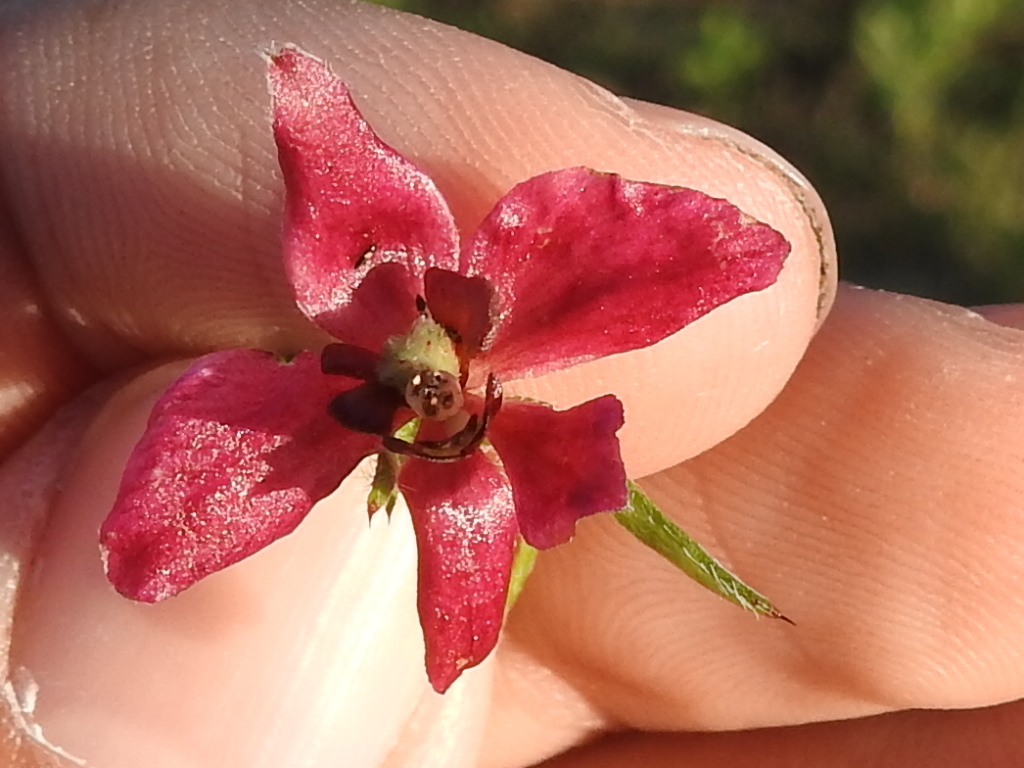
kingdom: Plantae
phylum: Tracheophyta
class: Magnoliopsida
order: Zygophyllales
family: Krameriaceae
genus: Krameria
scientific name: Krameria lanceolata
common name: Ratany
